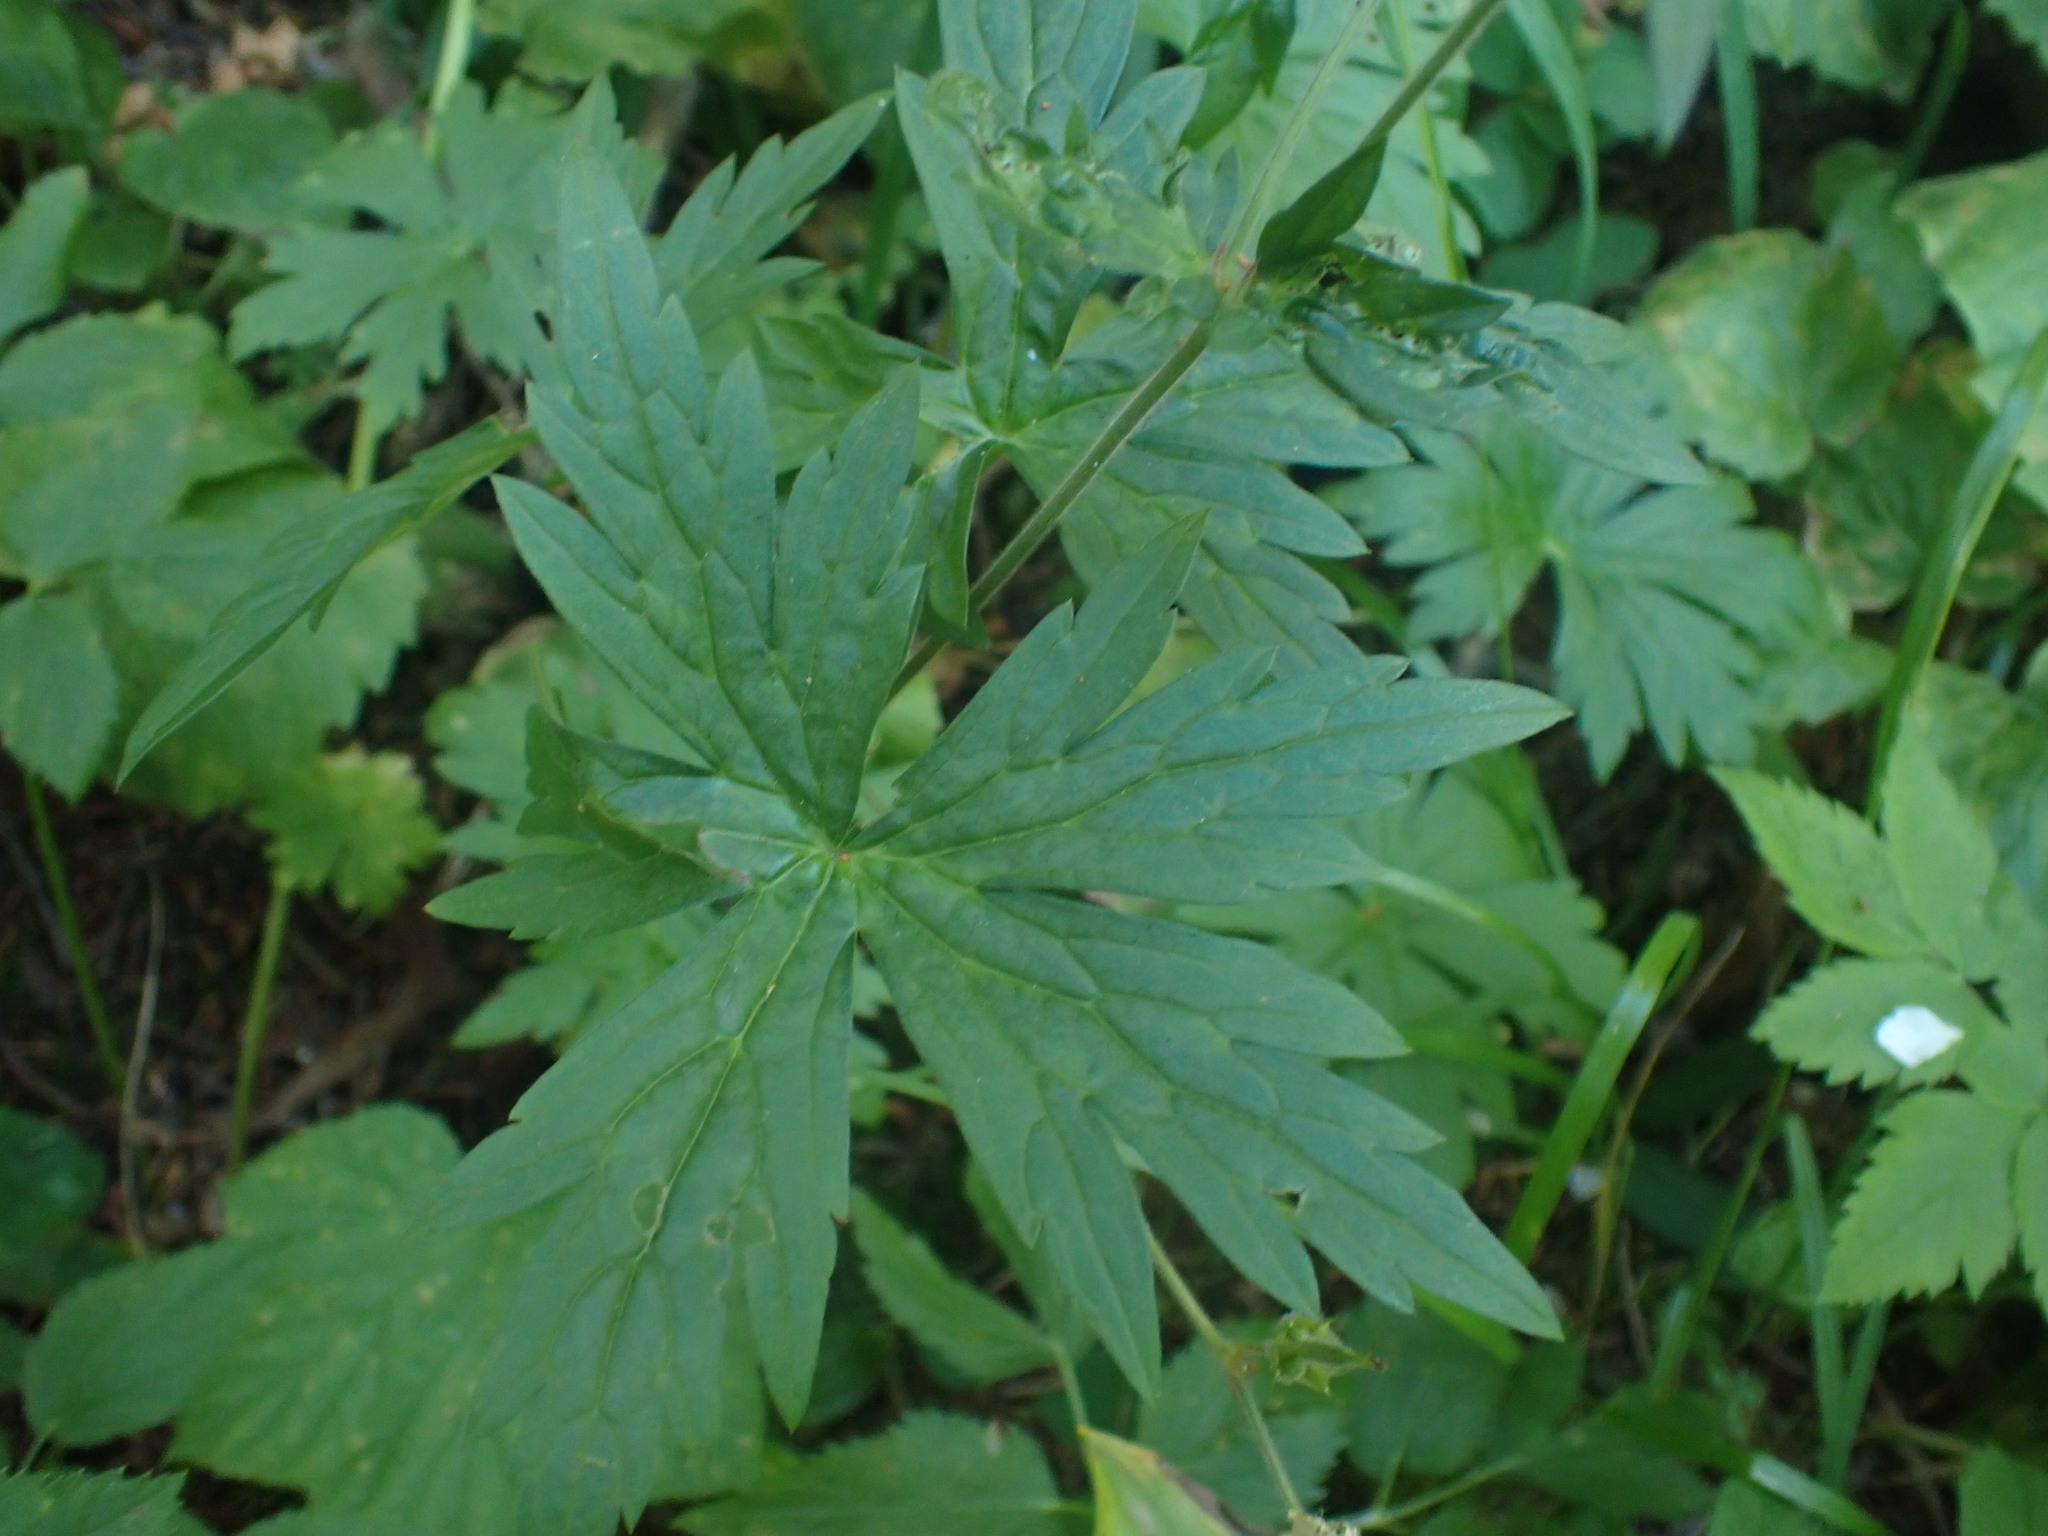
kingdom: Plantae
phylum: Tracheophyta
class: Magnoliopsida
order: Geraniales
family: Geraniaceae
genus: Geranium
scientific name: Geranium richardsonii
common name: Richardson's crane's-bill
